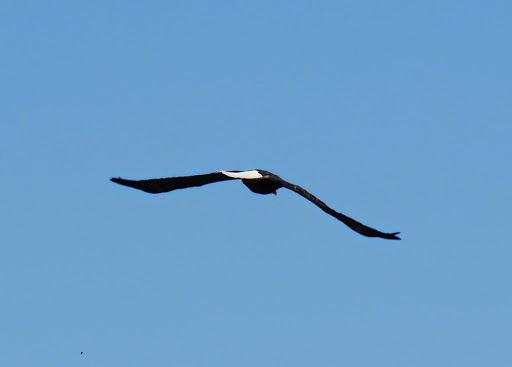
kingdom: Animalia
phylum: Chordata
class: Aves
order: Accipitriformes
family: Accipitridae
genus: Haliaeetus
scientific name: Haliaeetus leucocephalus
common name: Bald eagle
